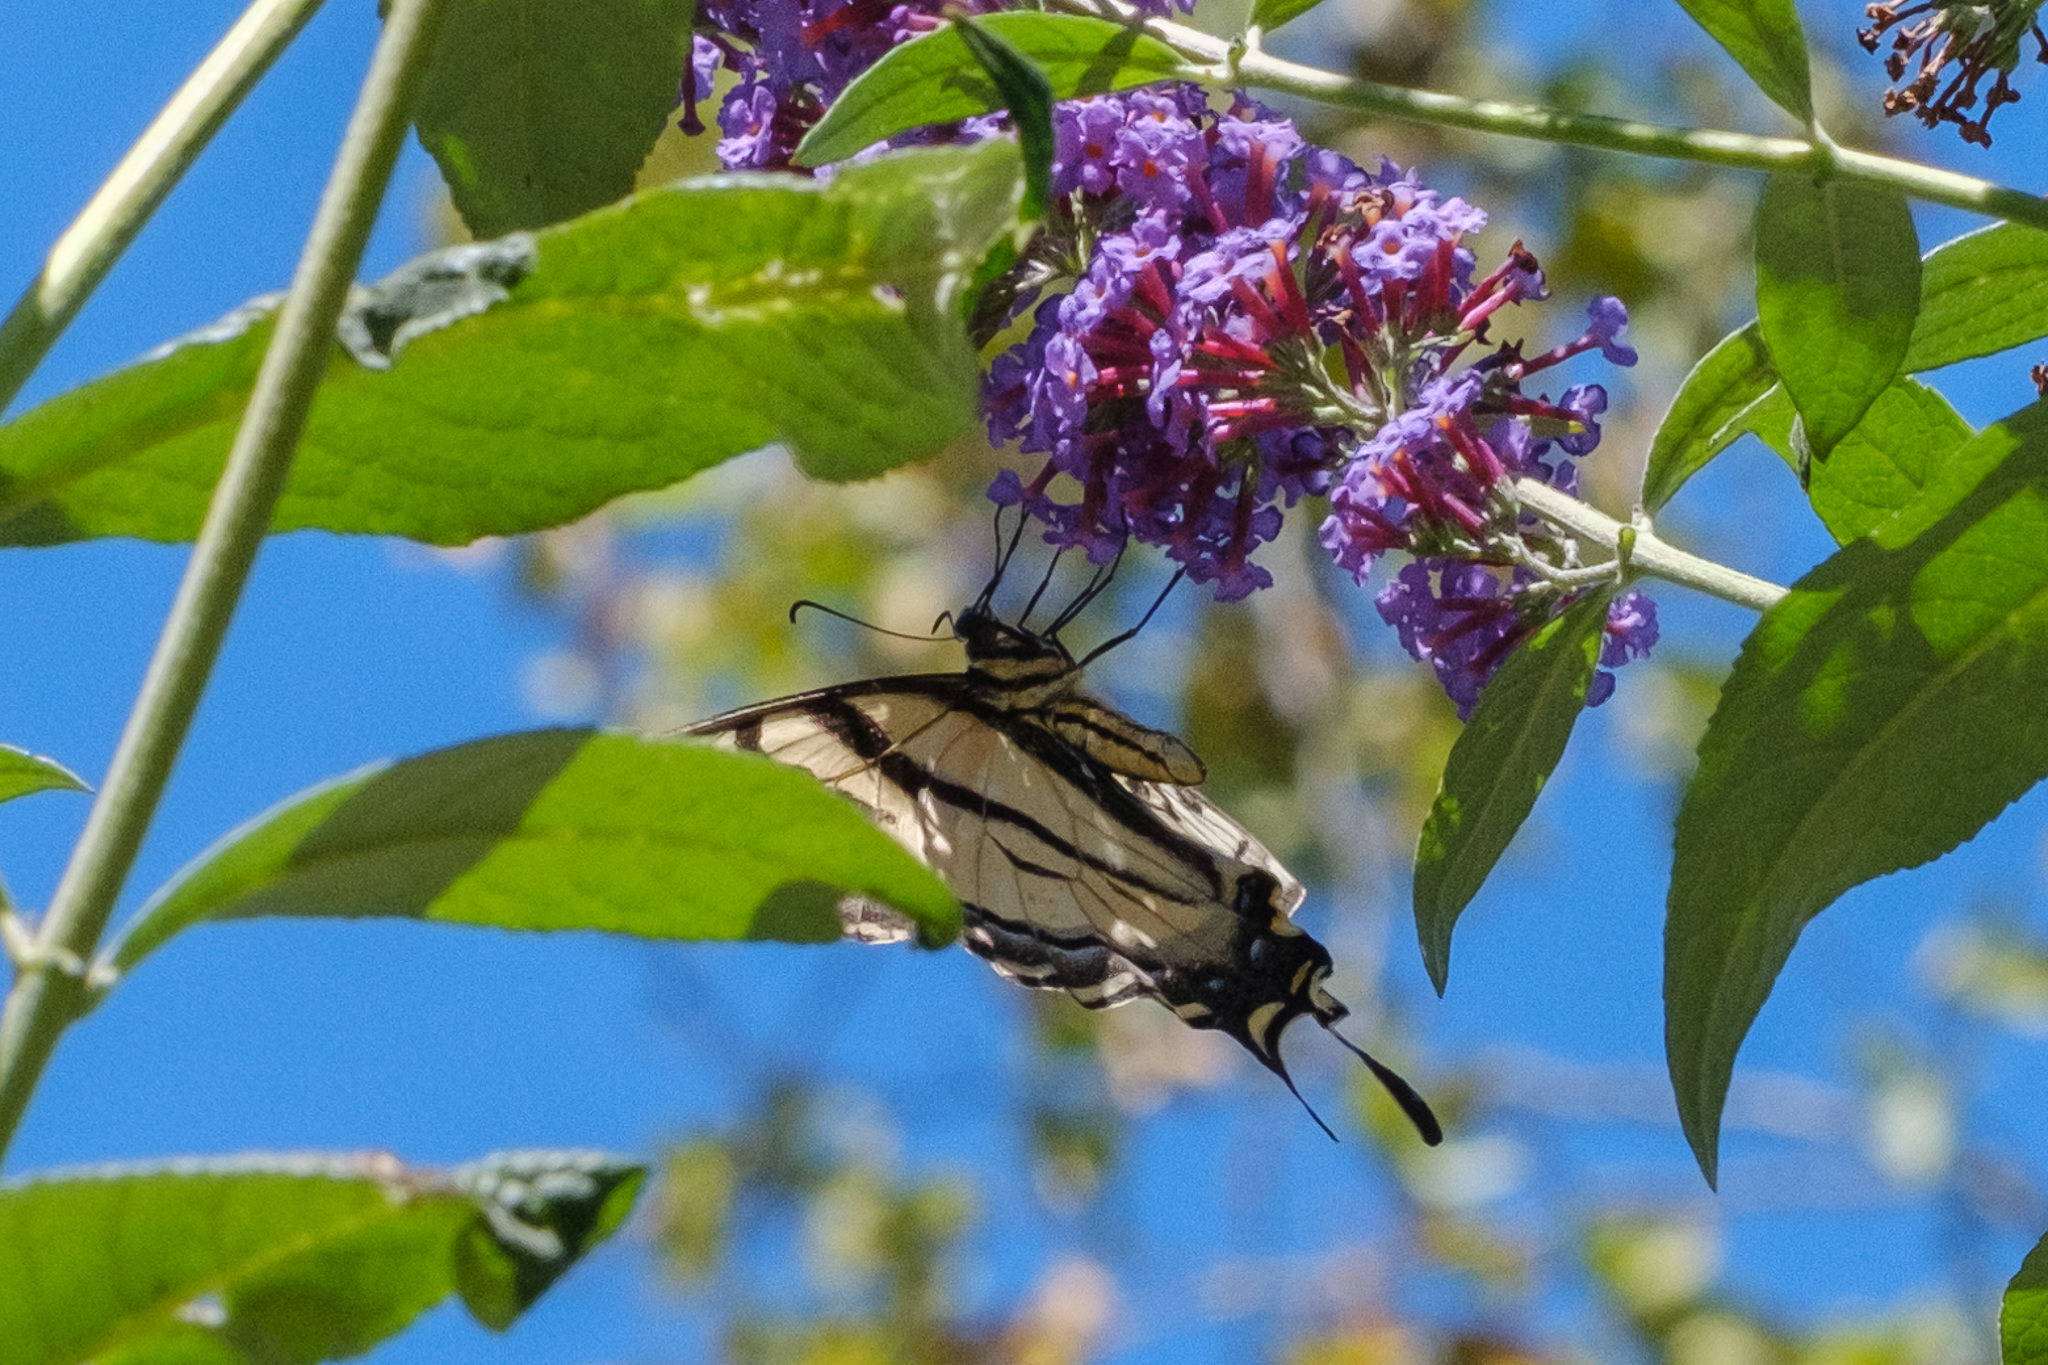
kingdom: Animalia
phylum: Arthropoda
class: Insecta
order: Lepidoptera
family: Papilionidae
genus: Papilio
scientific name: Papilio rutulus
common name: Western tiger swallowtail
